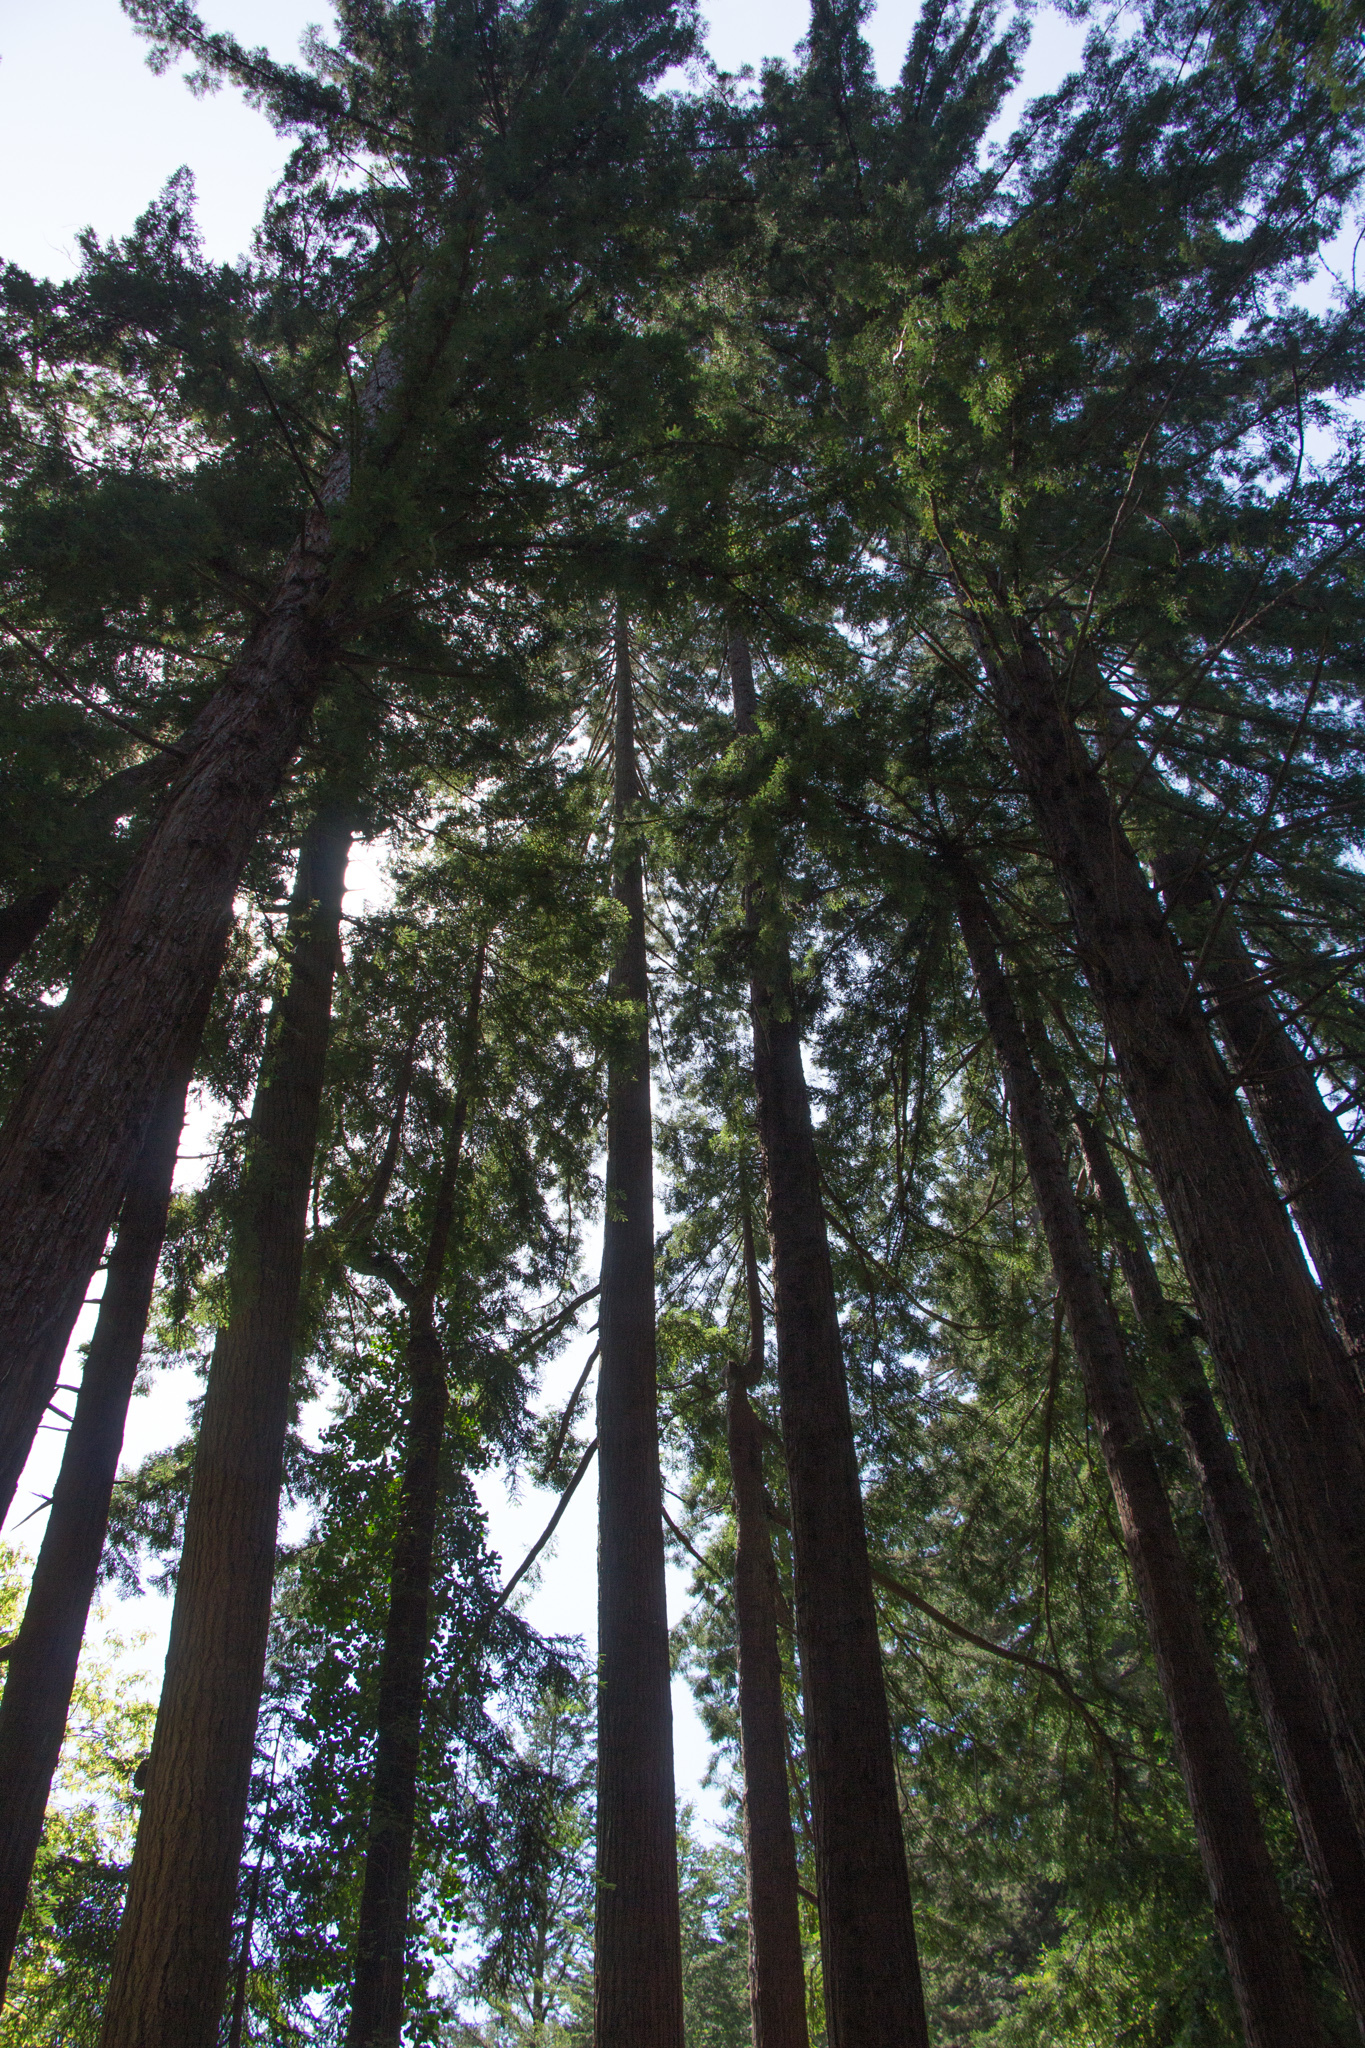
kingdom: Plantae
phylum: Tracheophyta
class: Pinopsida
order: Pinales
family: Cupressaceae
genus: Sequoia
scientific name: Sequoia sempervirens
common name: Coast redwood
